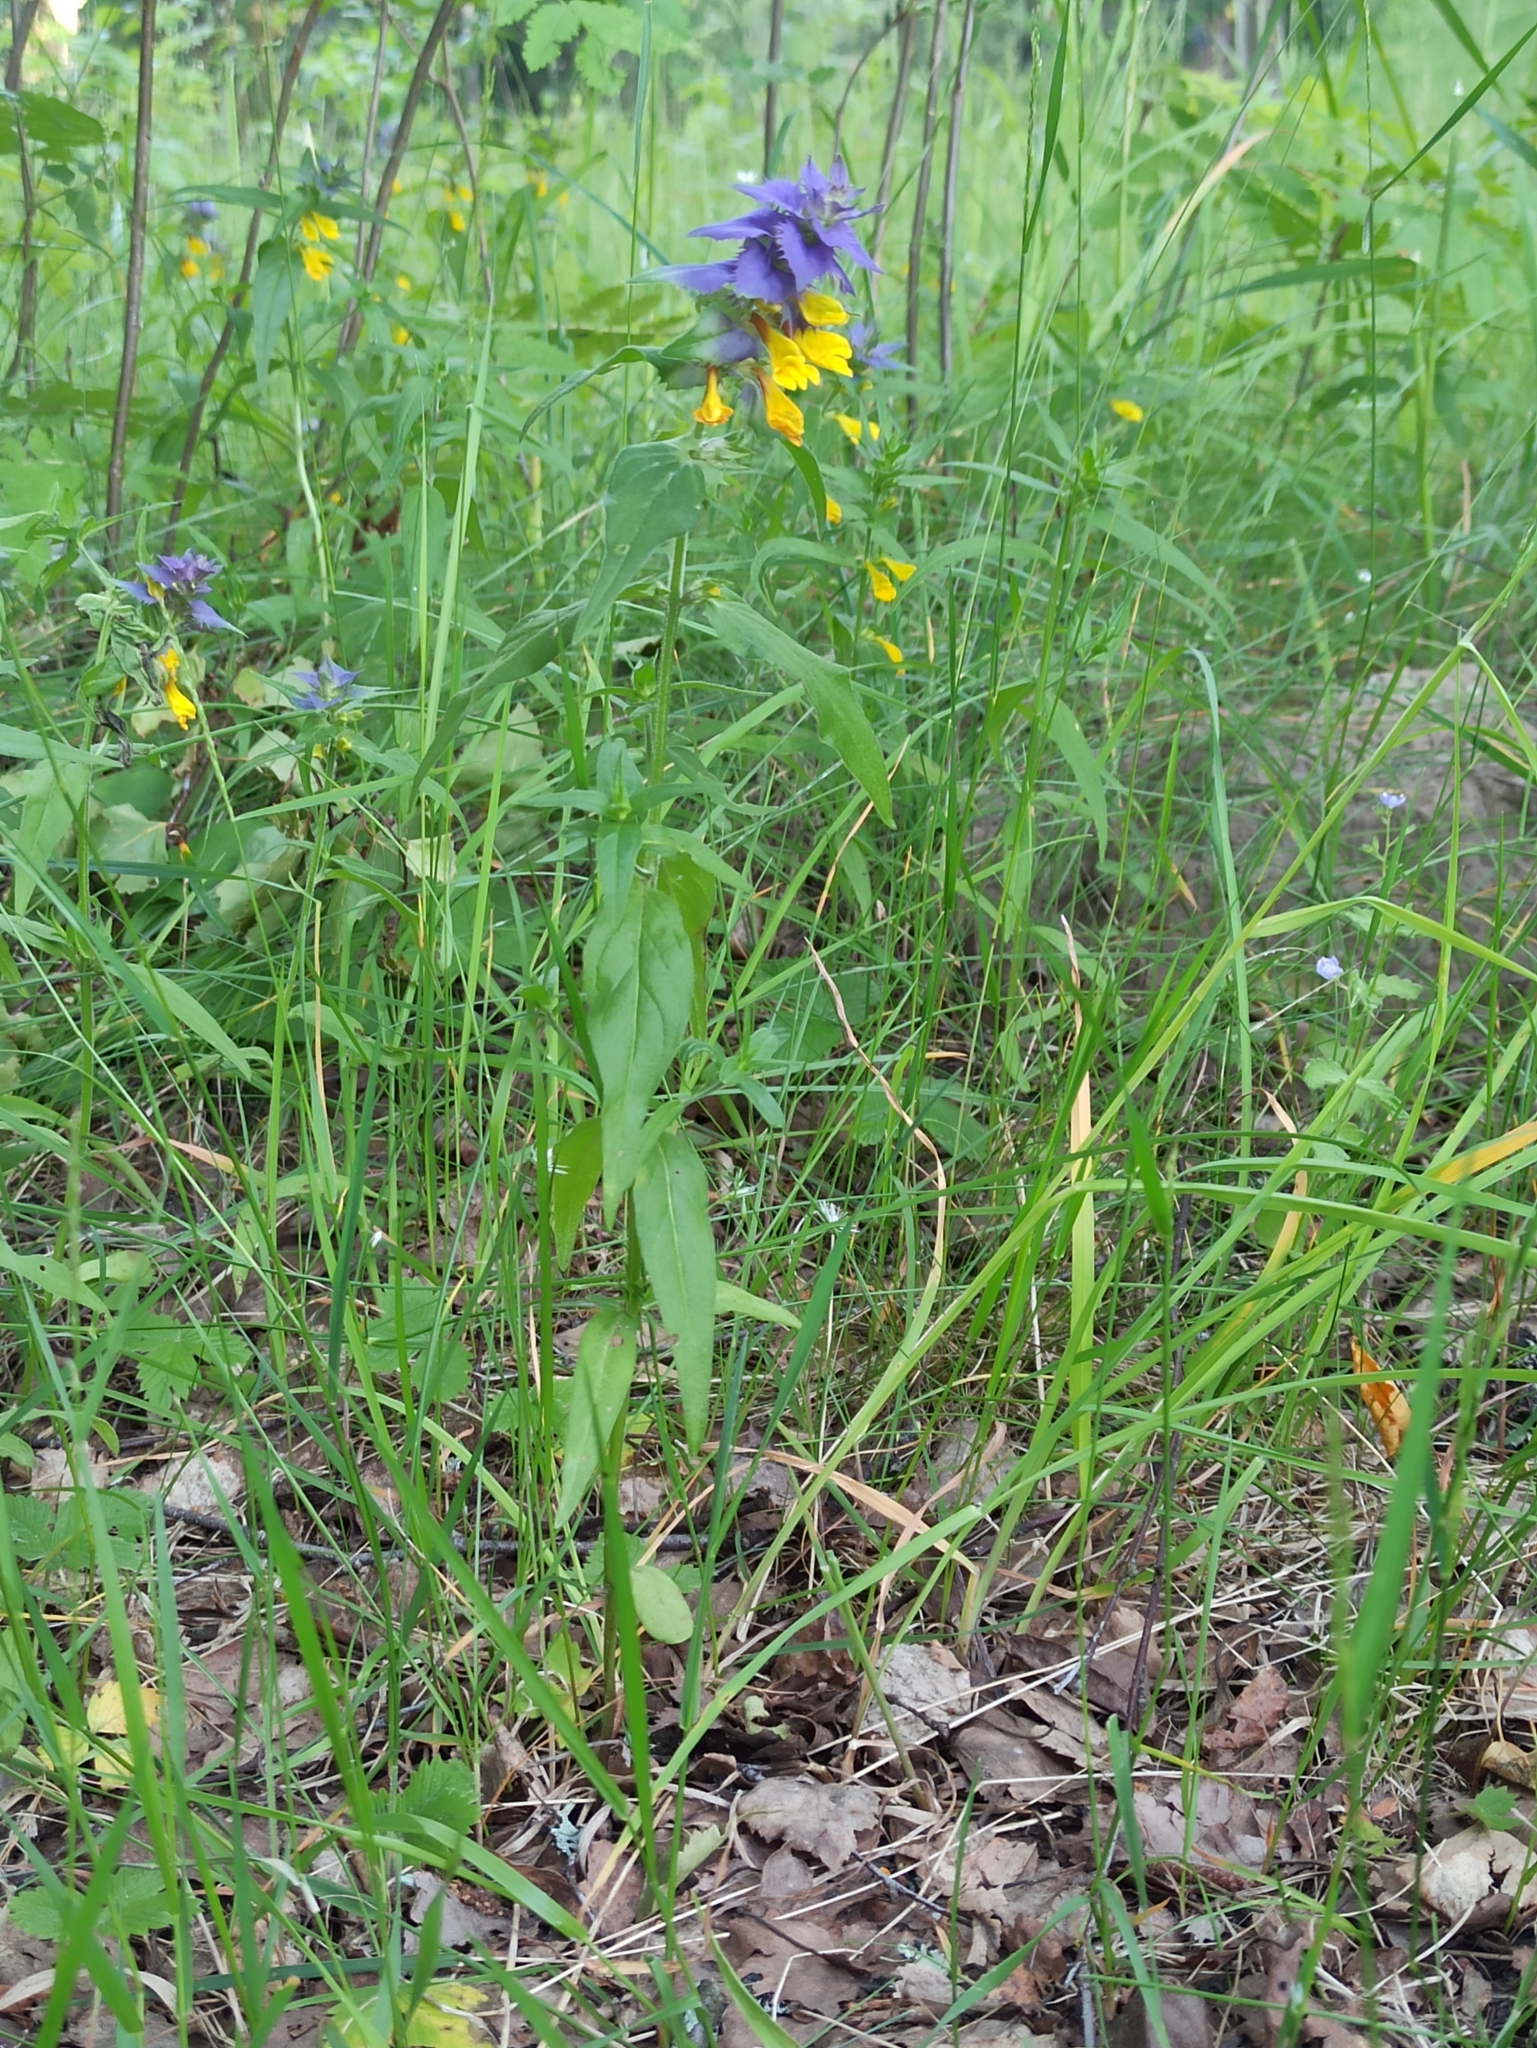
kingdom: Plantae
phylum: Tracheophyta
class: Magnoliopsida
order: Lamiales
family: Orobanchaceae
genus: Melampyrum
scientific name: Melampyrum nemorosum
